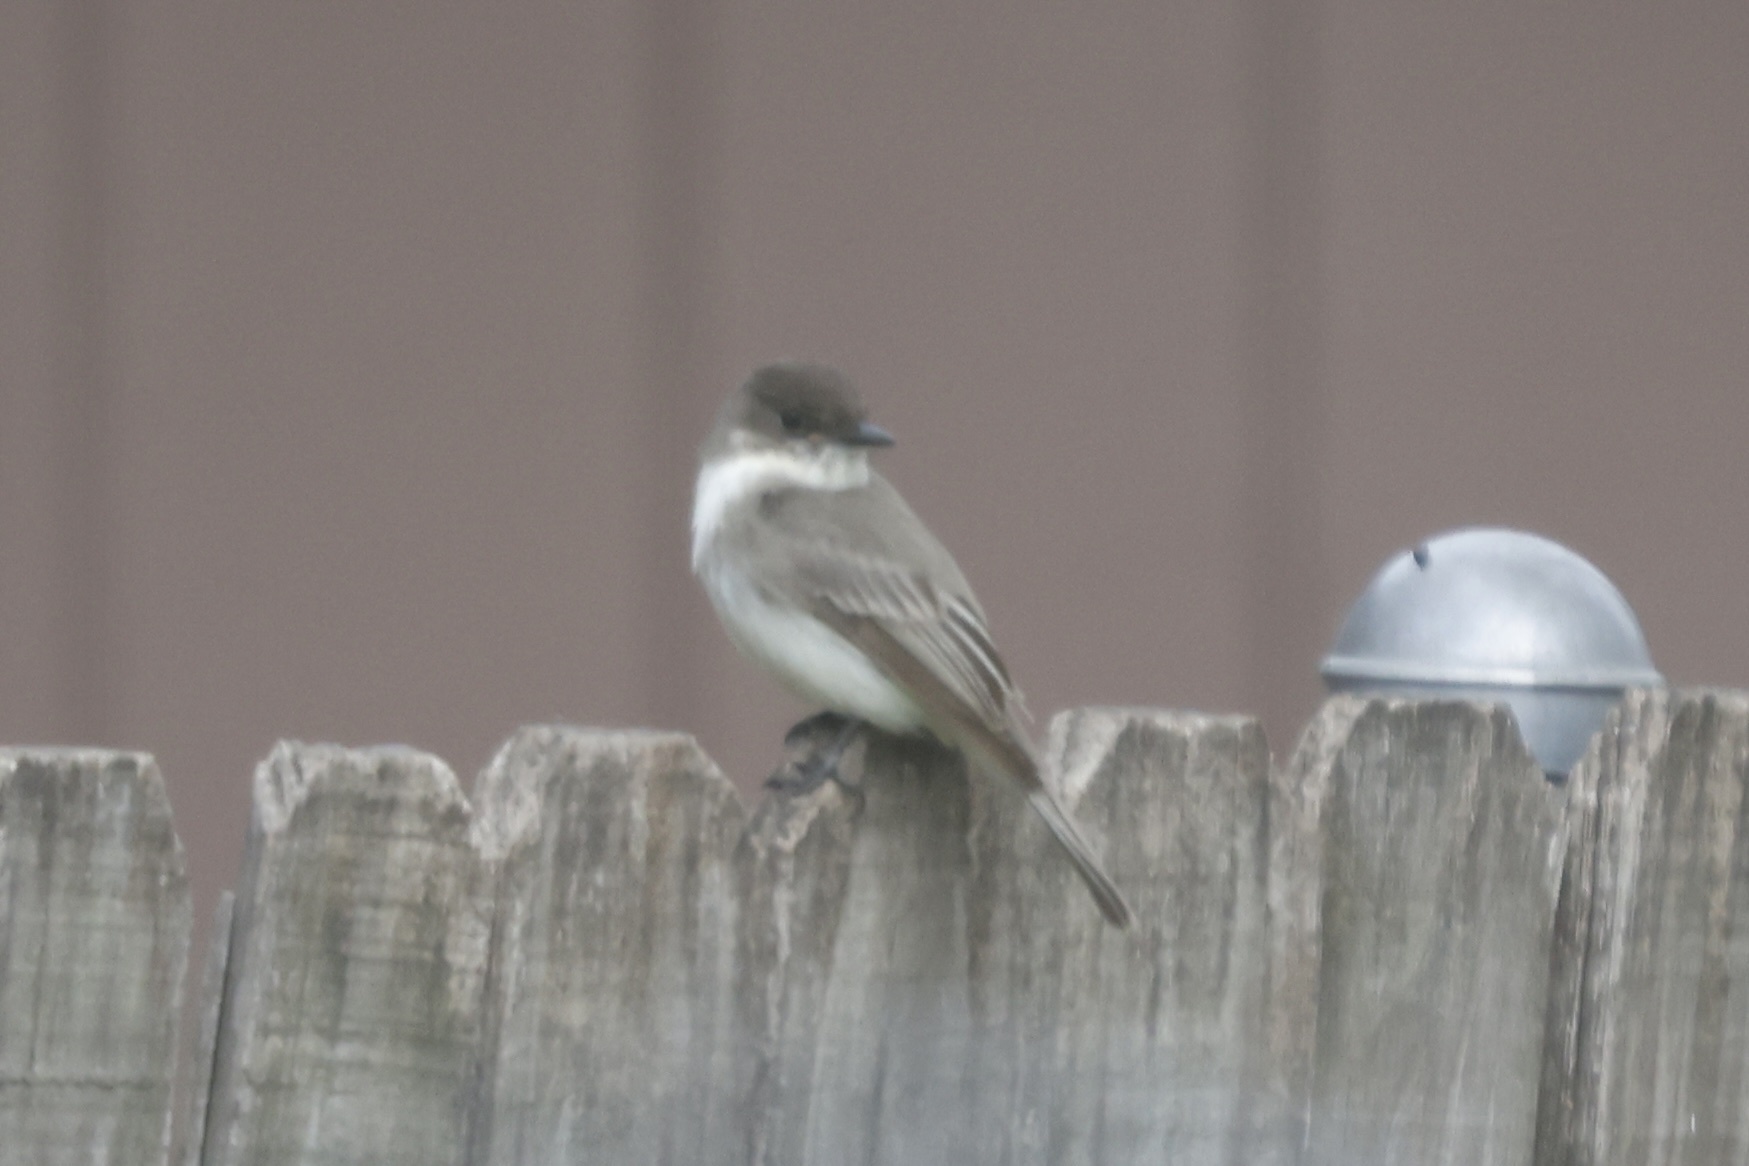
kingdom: Animalia
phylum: Chordata
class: Aves
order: Passeriformes
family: Tyrannidae
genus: Sayornis
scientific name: Sayornis phoebe
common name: Eastern phoebe
